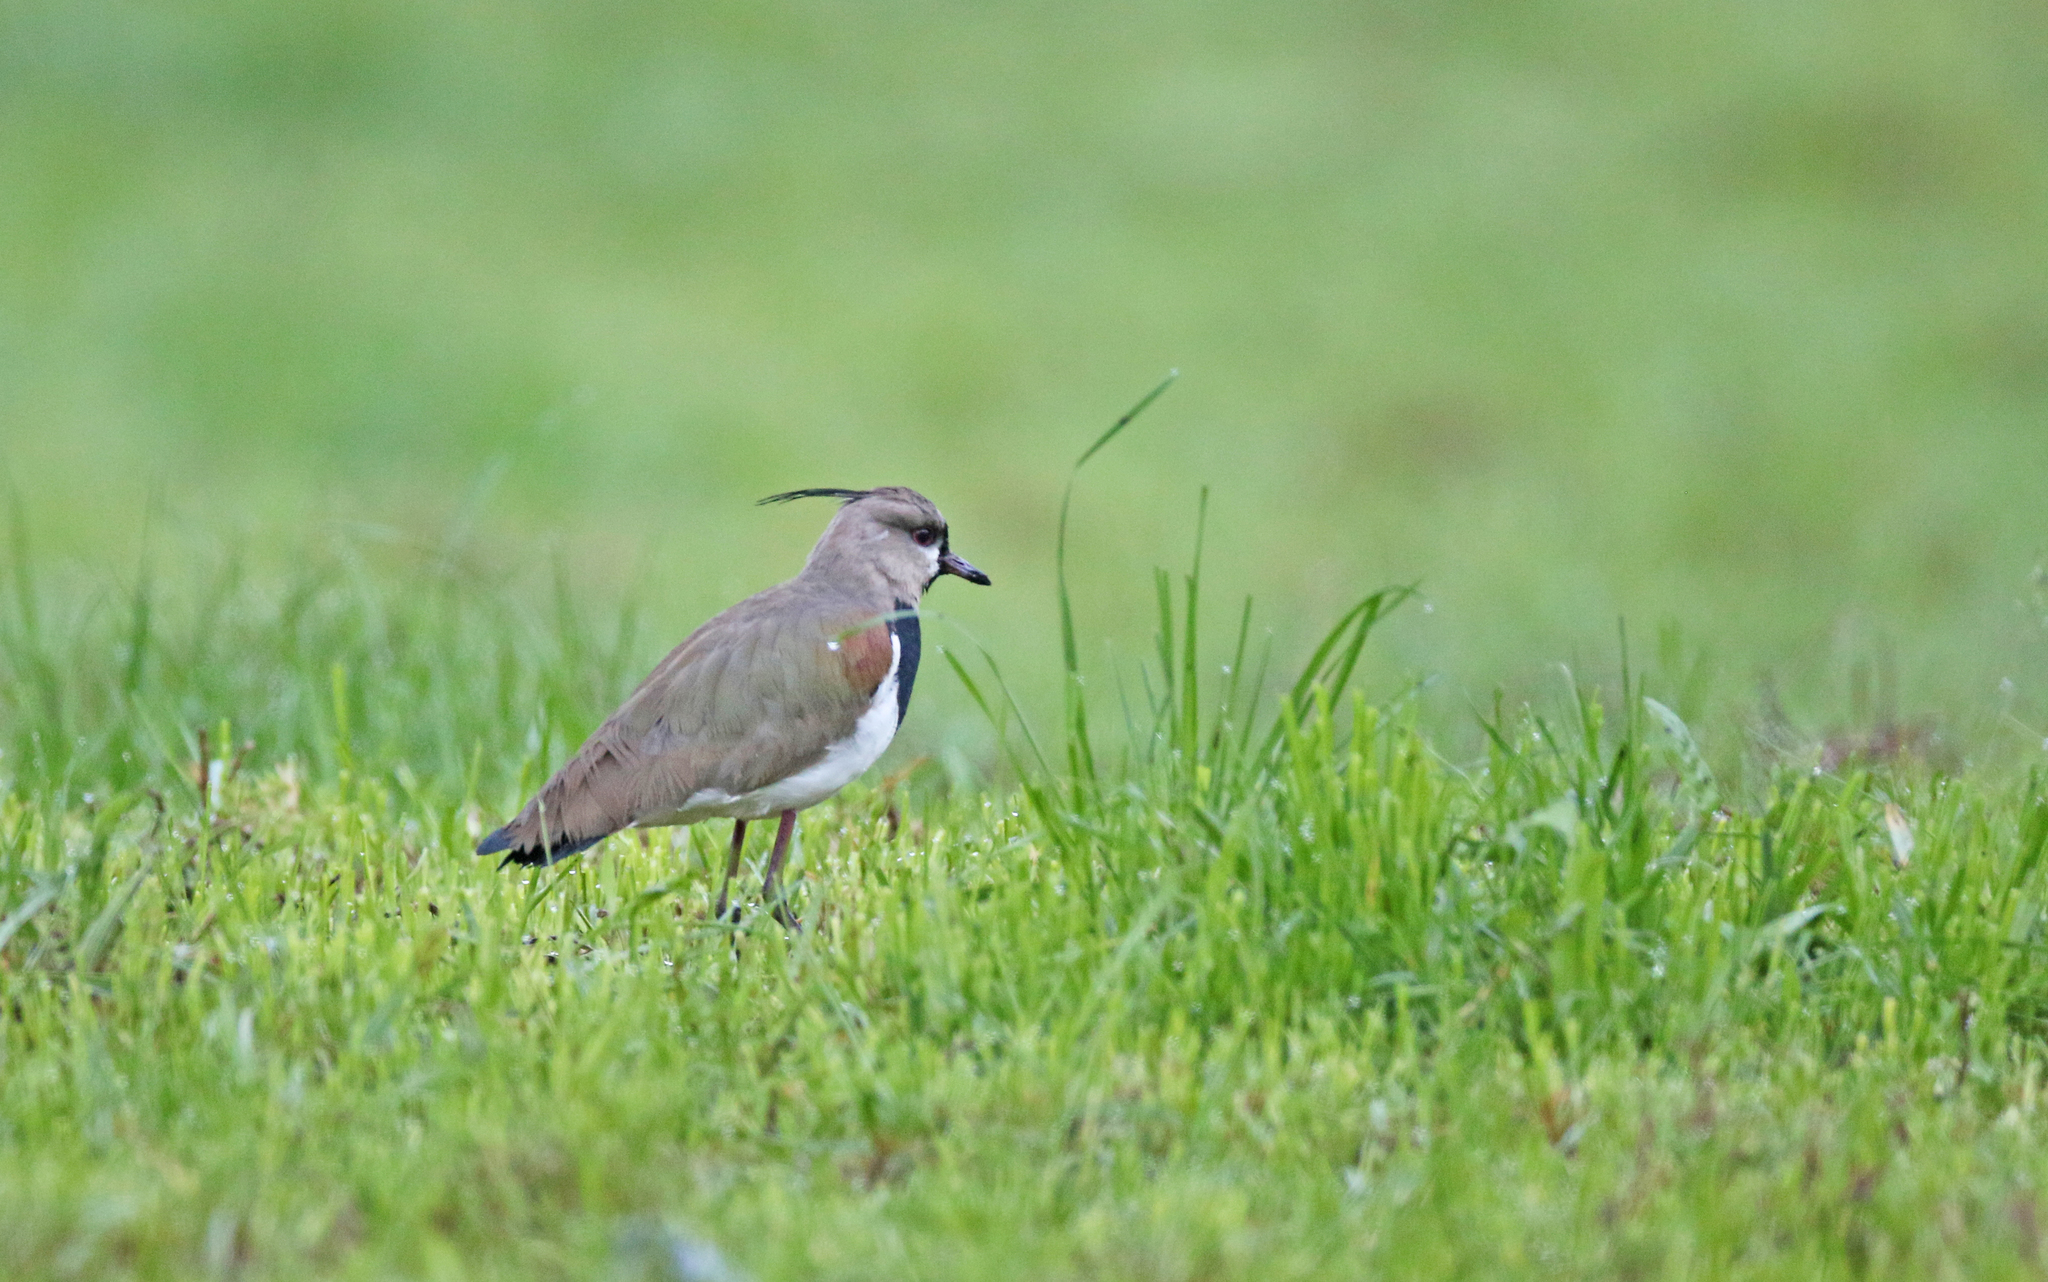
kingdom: Animalia
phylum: Chordata
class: Aves
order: Charadriiformes
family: Charadriidae
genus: Vanellus
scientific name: Vanellus chilensis
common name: Southern lapwing
